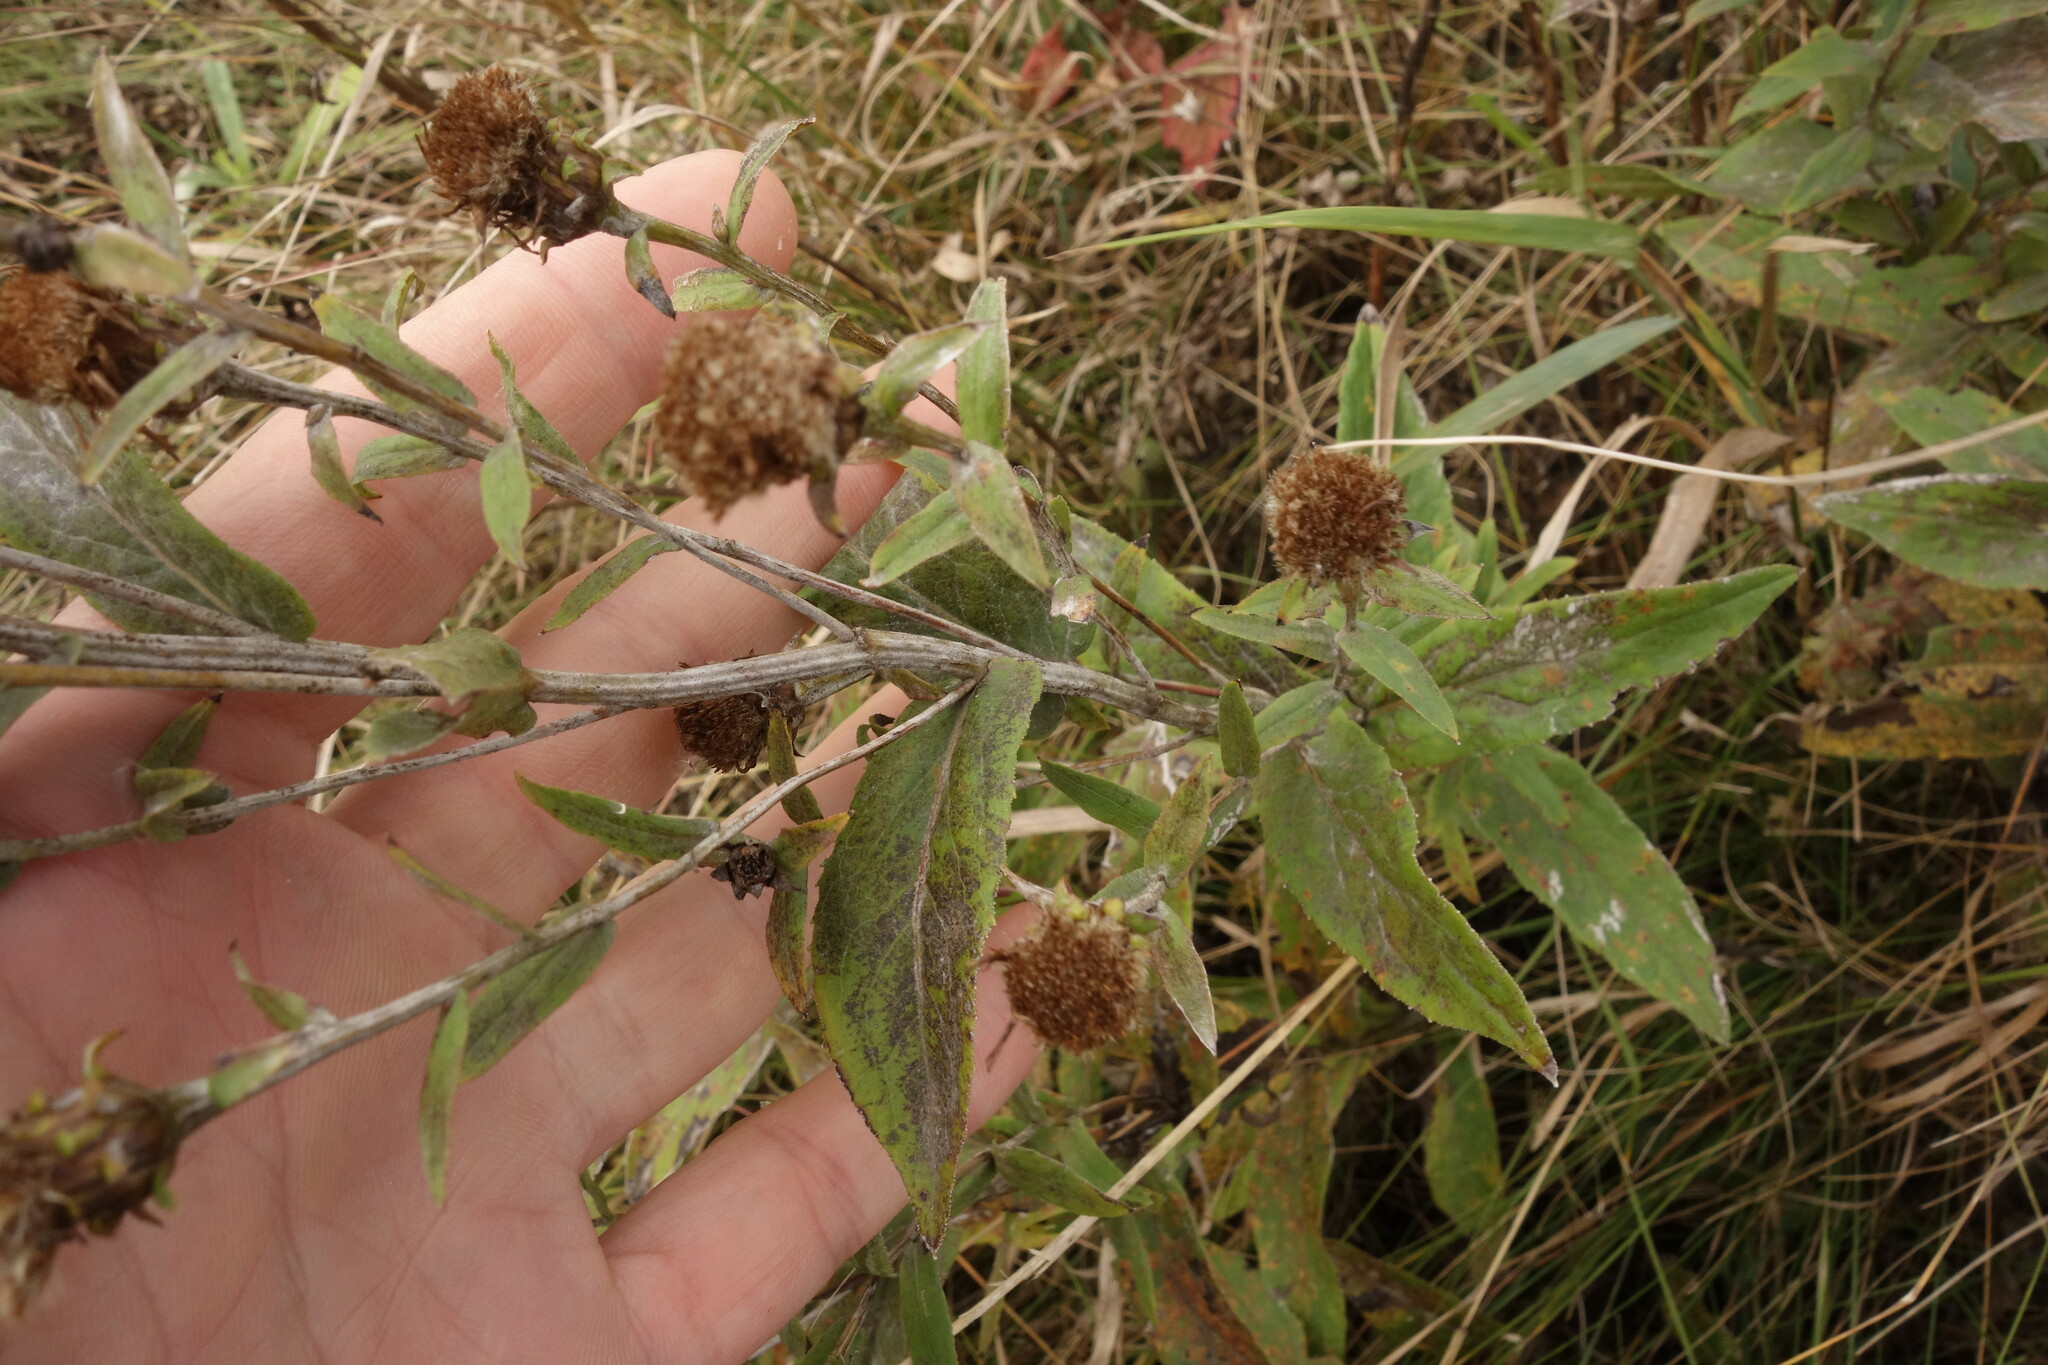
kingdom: Plantae
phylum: Tracheophyta
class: Magnoliopsida
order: Asterales
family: Asteraceae
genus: Pentanema
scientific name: Pentanema salicinum
